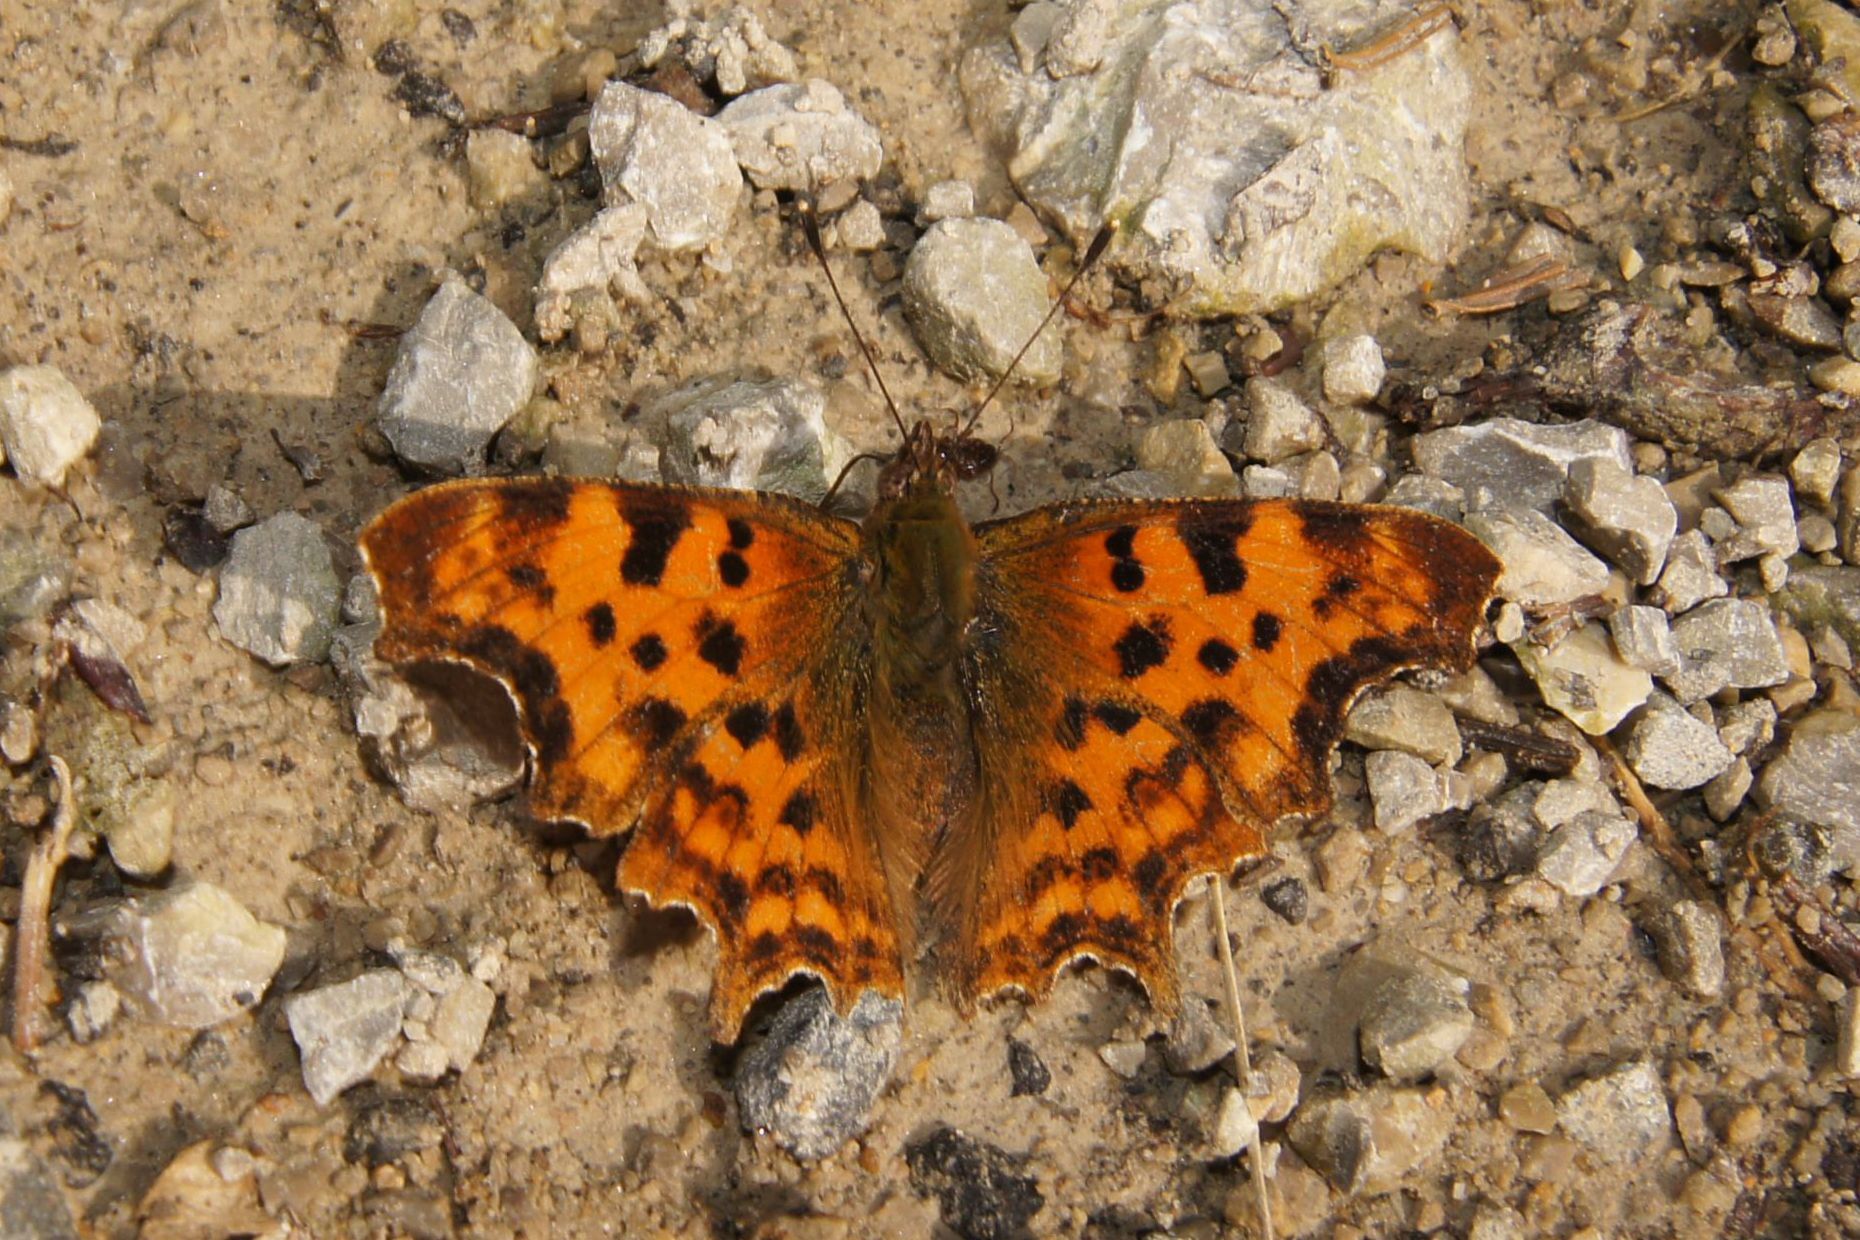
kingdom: Animalia
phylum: Arthropoda
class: Insecta
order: Lepidoptera
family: Nymphalidae
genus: Polygonia
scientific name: Polygonia c-album
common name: Comma
